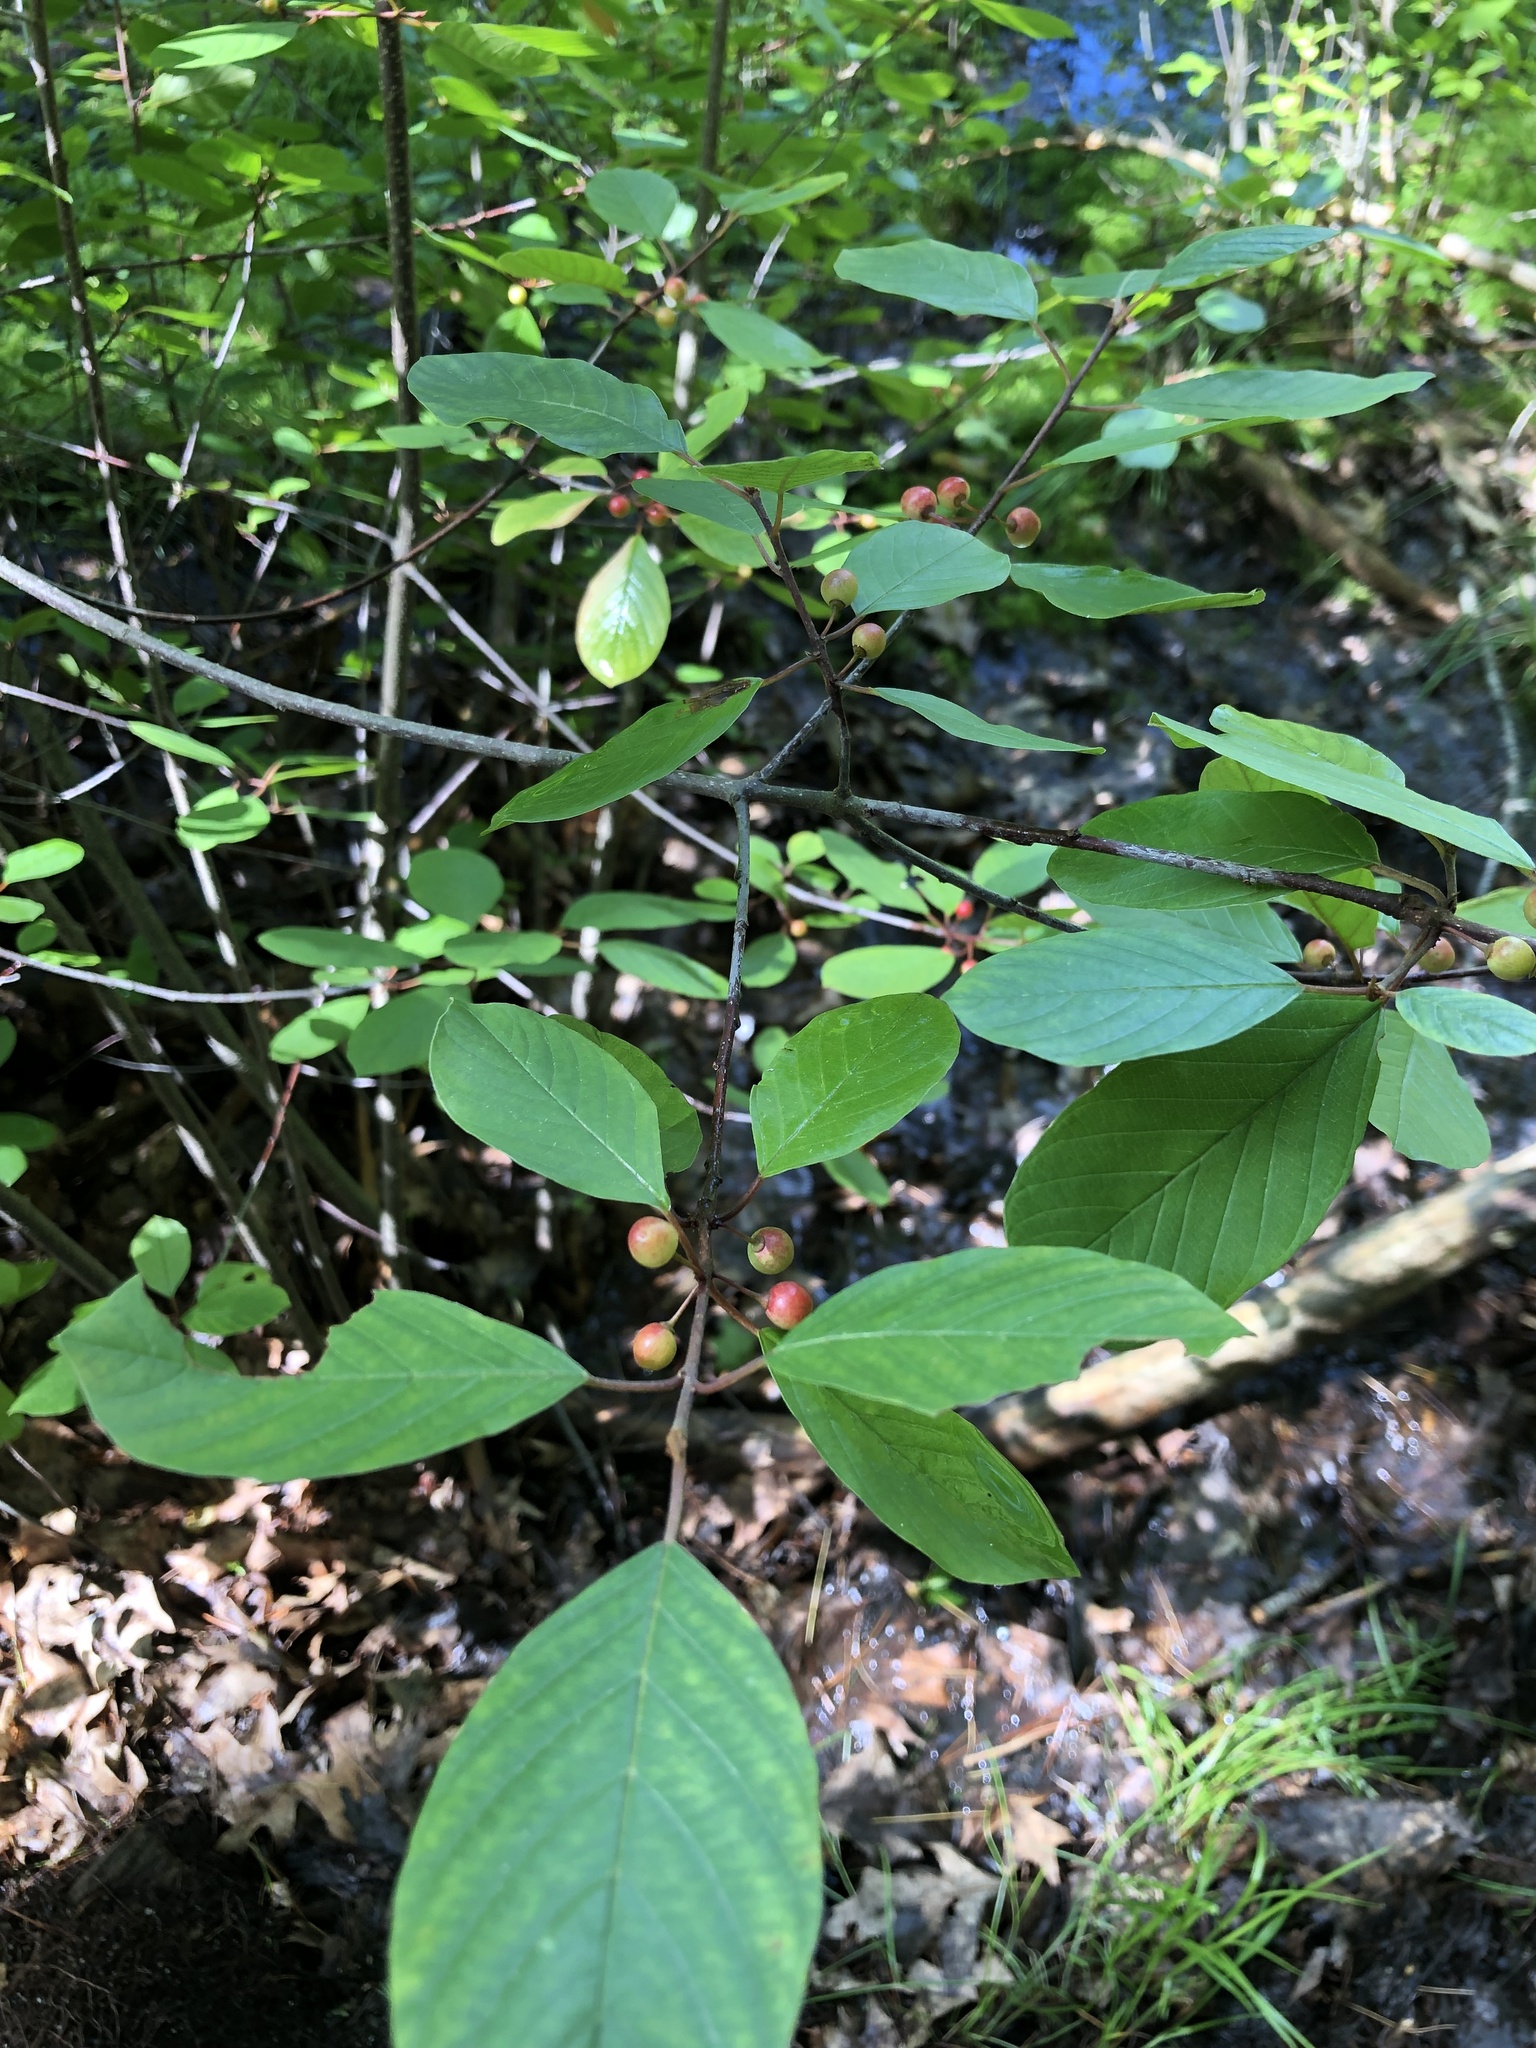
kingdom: Plantae
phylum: Tracheophyta
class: Magnoliopsida
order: Rosales
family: Rhamnaceae
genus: Frangula
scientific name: Frangula alnus
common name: Alder buckthorn
